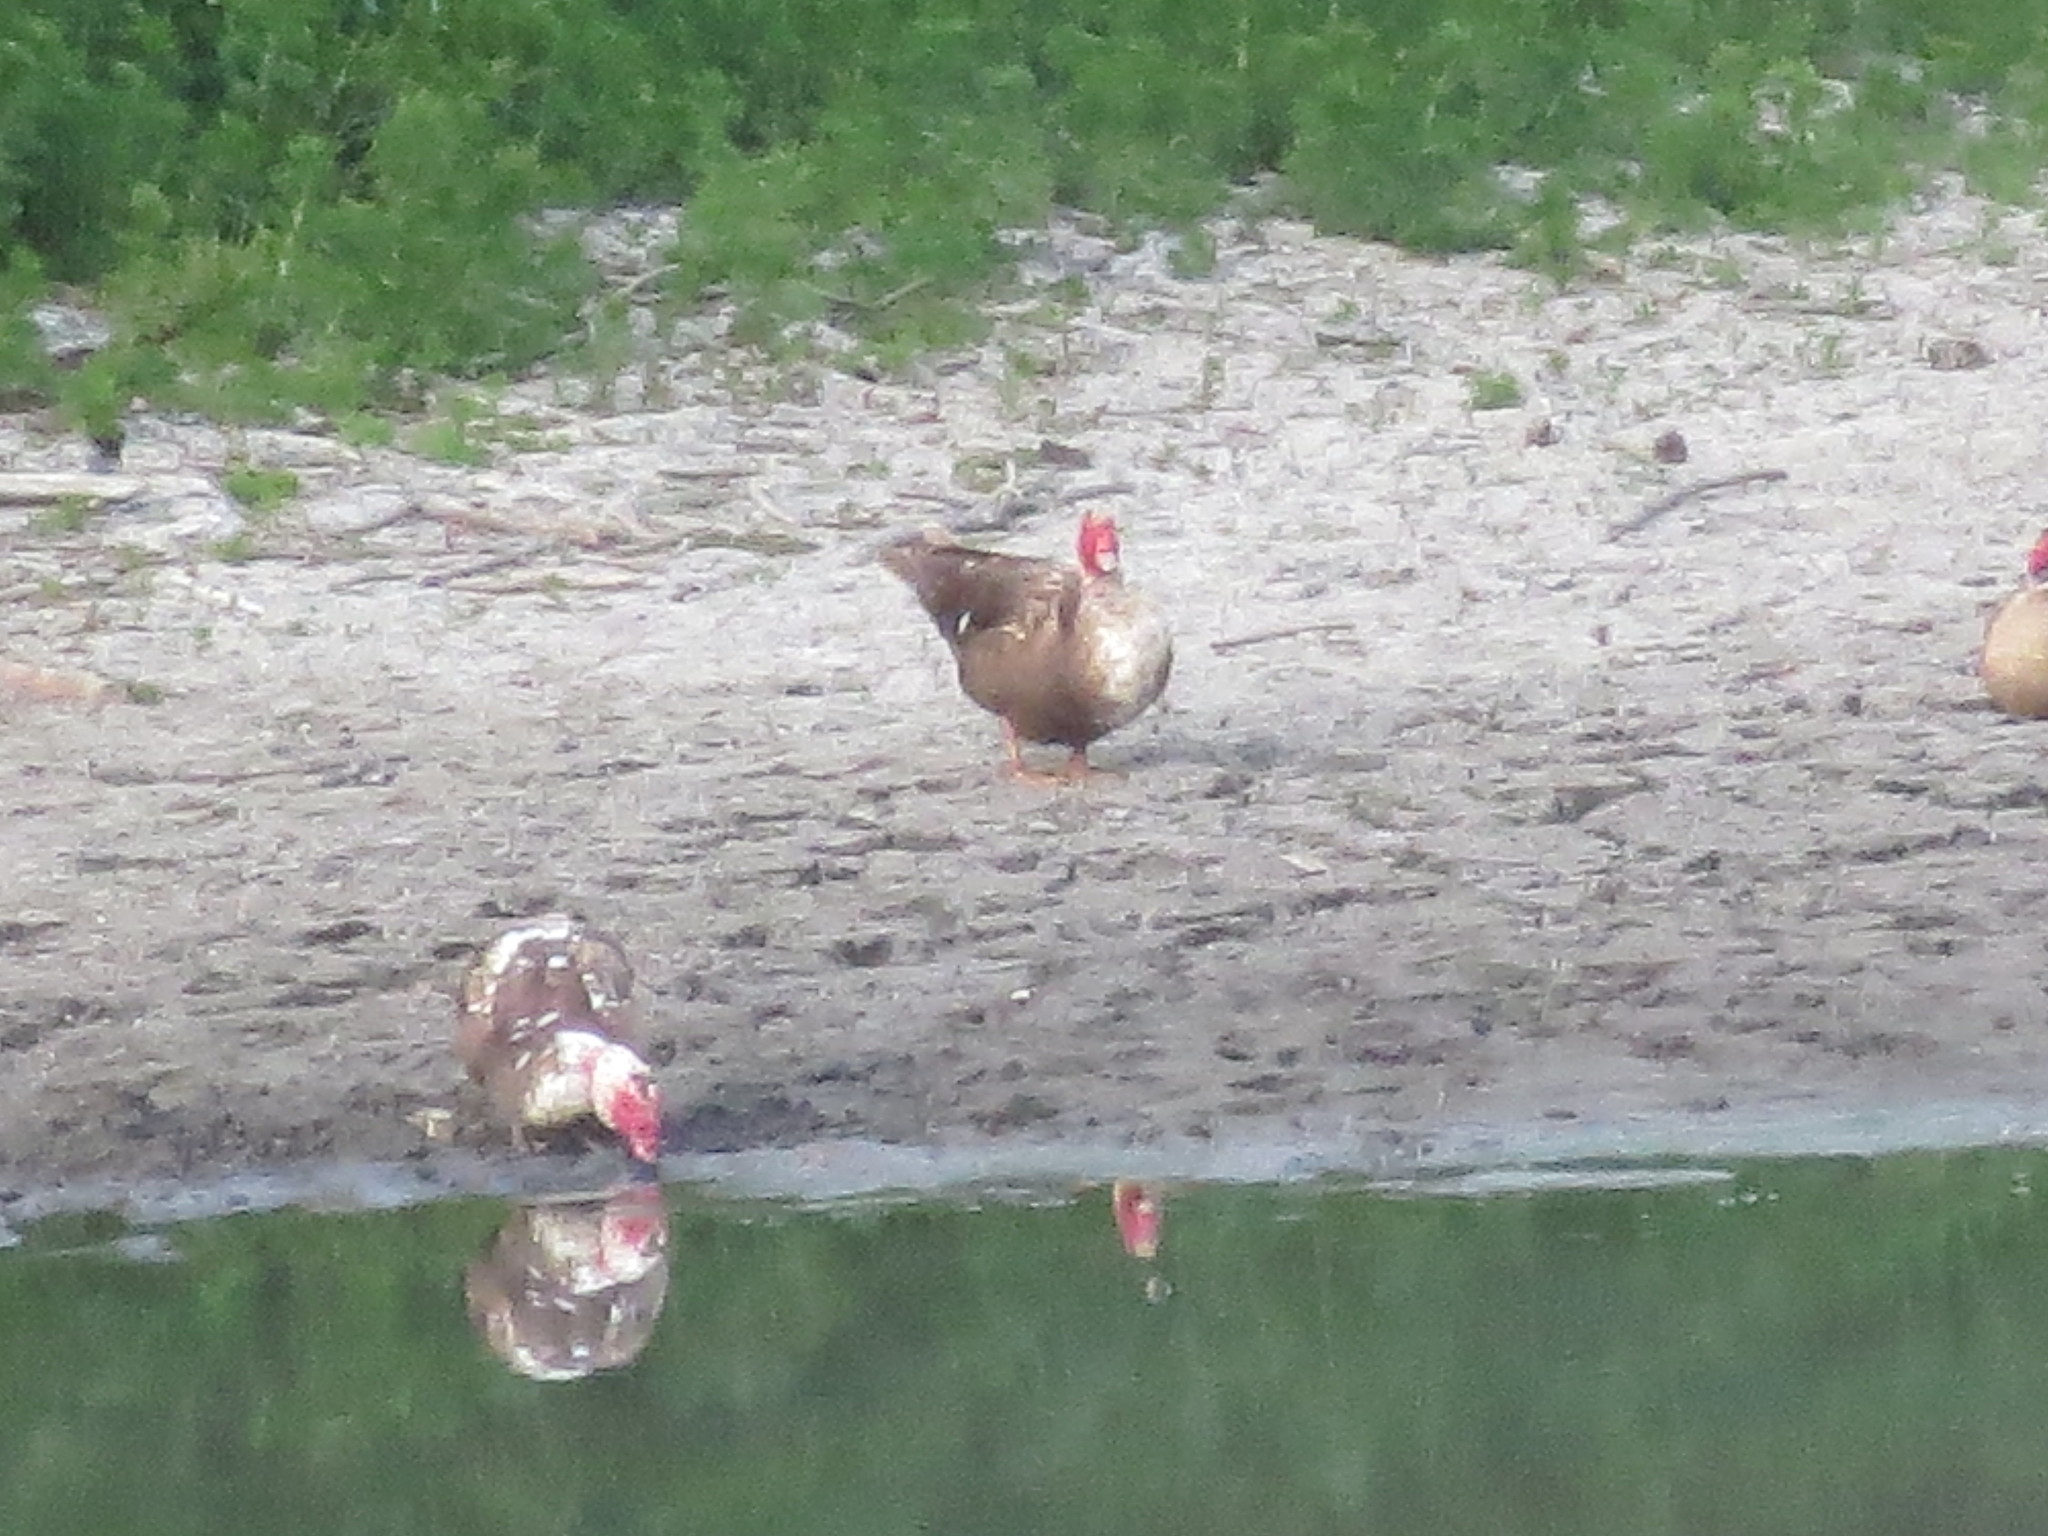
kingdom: Animalia
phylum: Chordata
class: Aves
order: Anseriformes
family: Anatidae
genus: Cairina
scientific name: Cairina moschata
